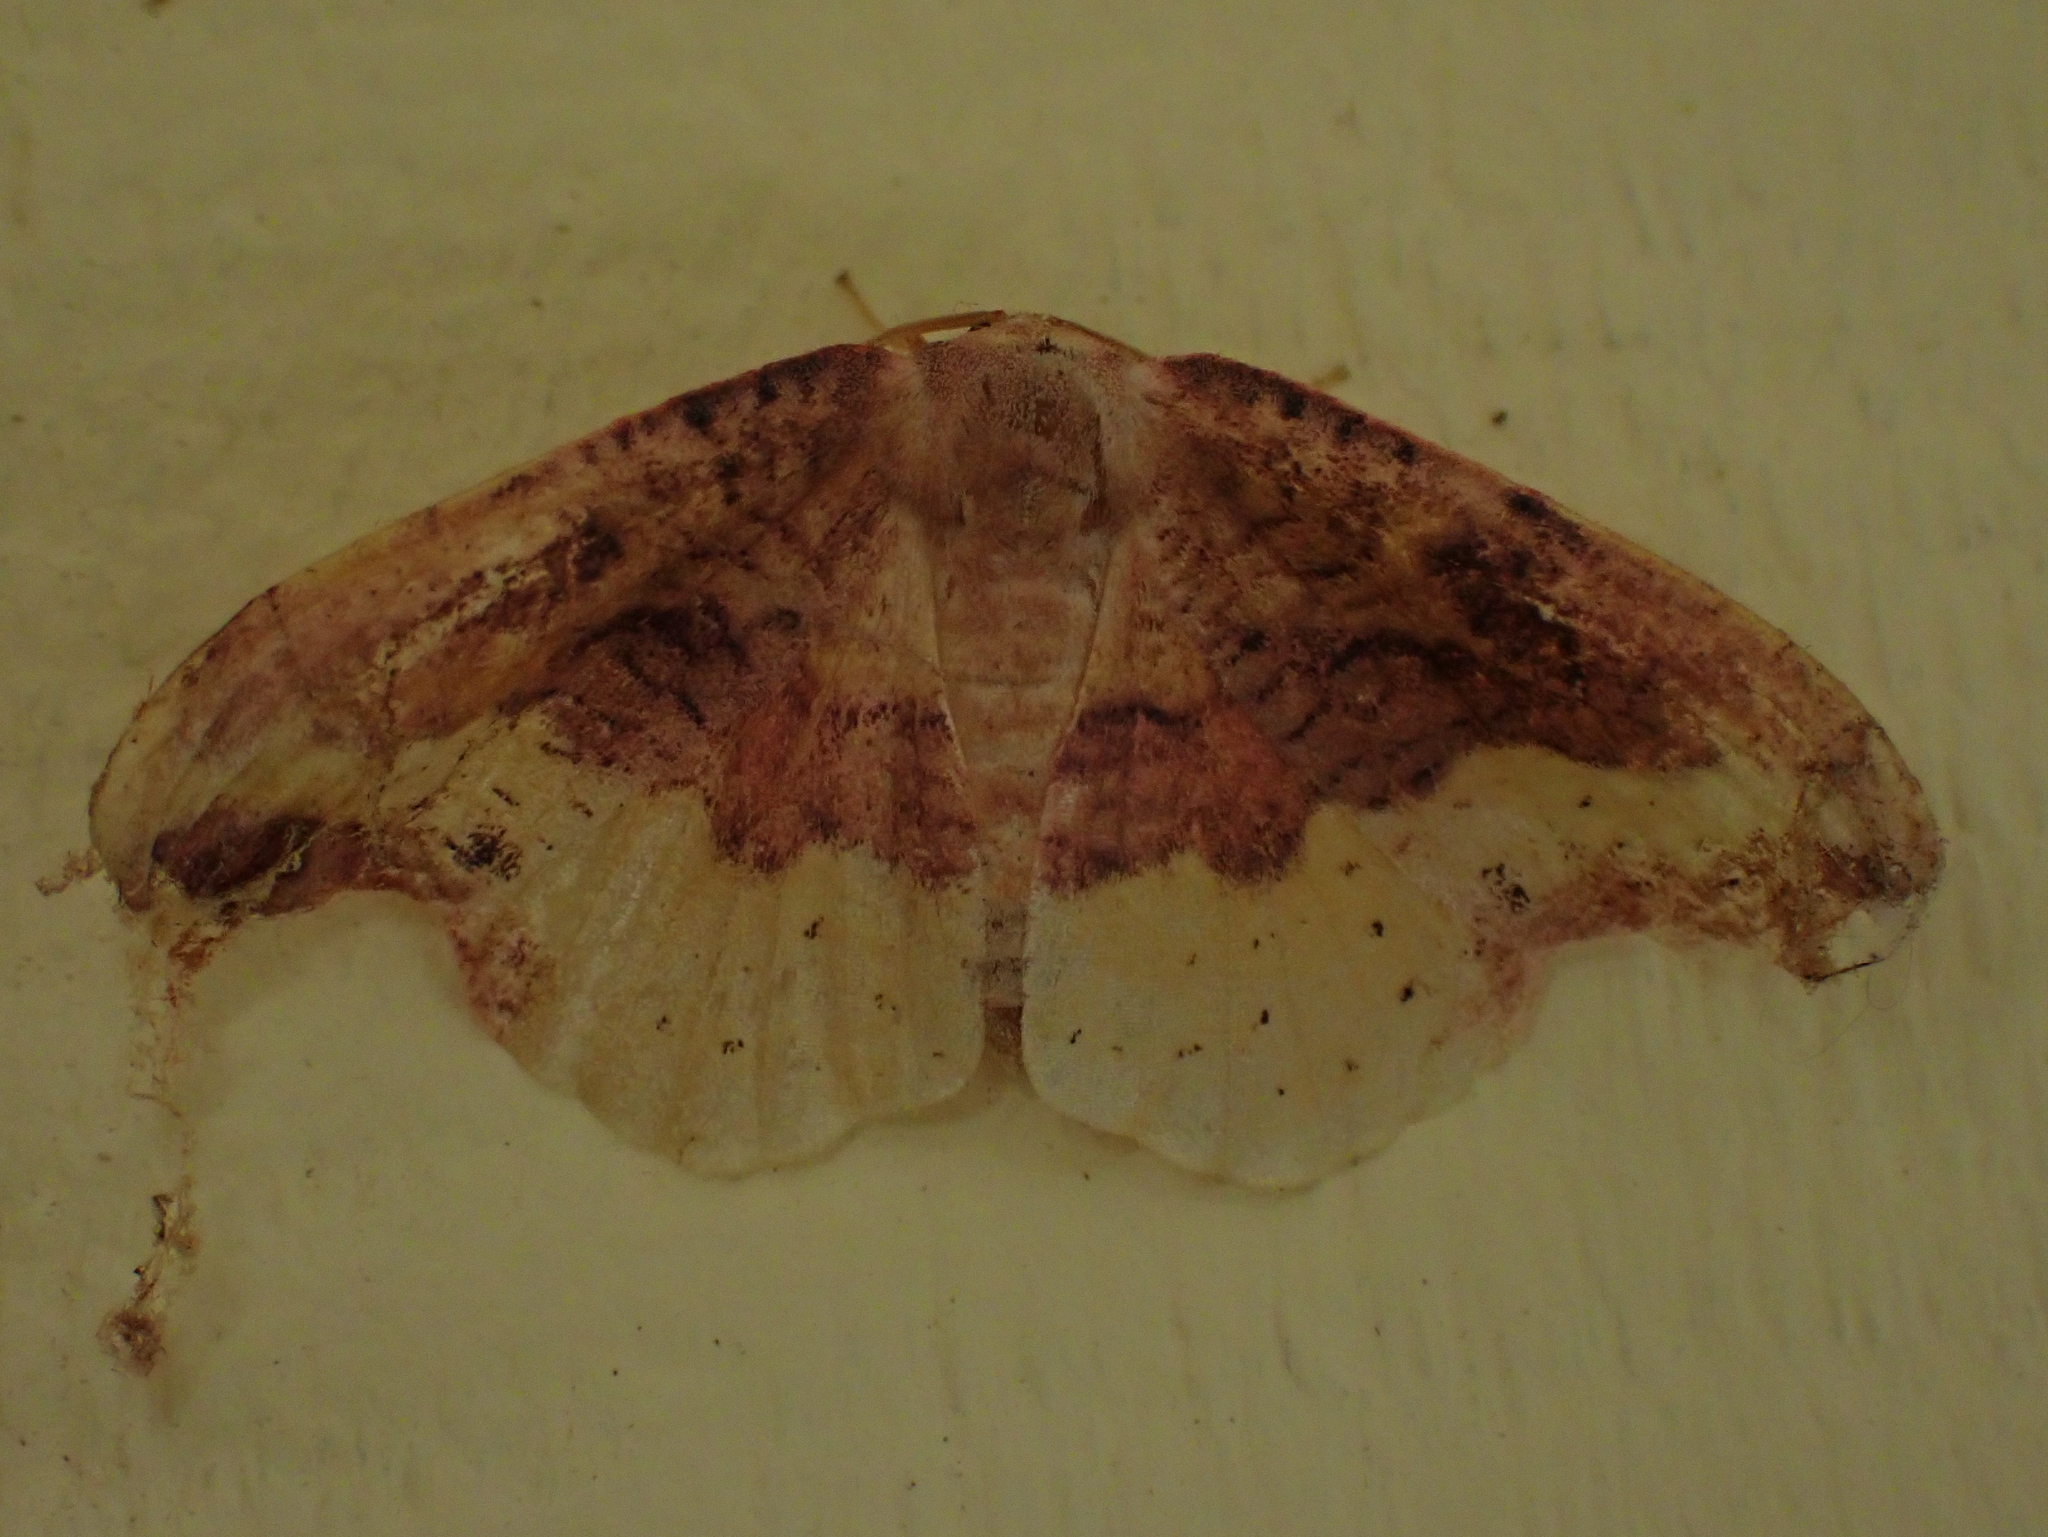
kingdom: Animalia
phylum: Arthropoda
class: Insecta
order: Lepidoptera
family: Drepanidae
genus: Oreta
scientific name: Oreta rosea
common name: Rose hooktip
